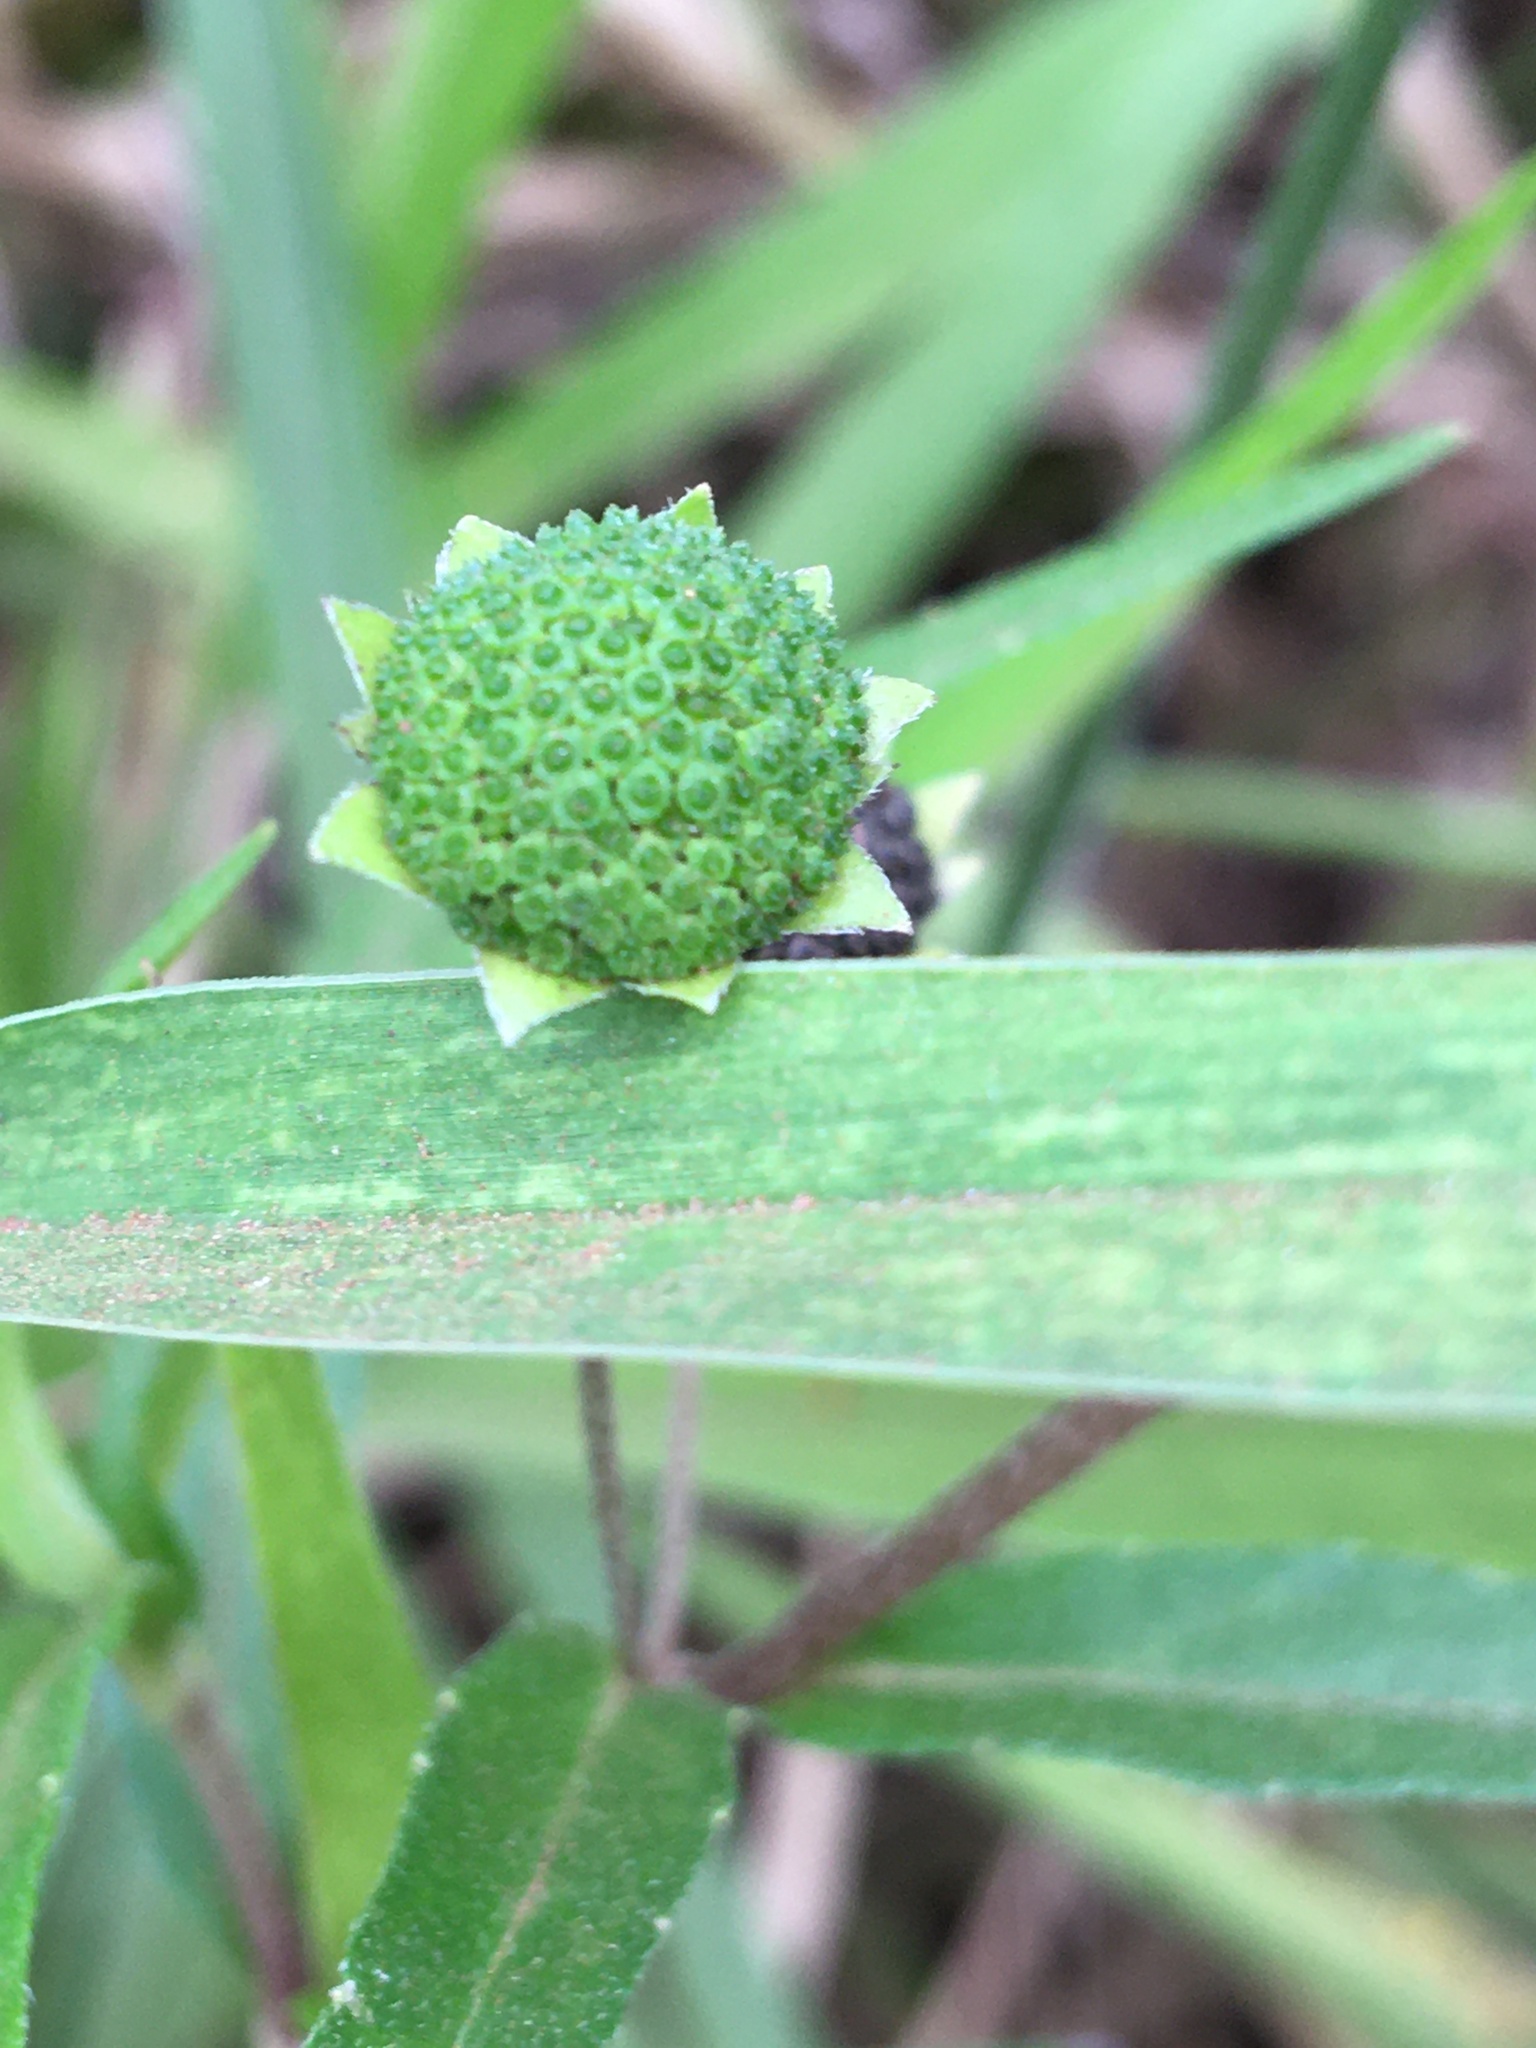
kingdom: Plantae
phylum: Tracheophyta
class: Magnoliopsida
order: Asterales
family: Asteraceae
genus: Eclipta
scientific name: Eclipta prostrata
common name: False daisy
